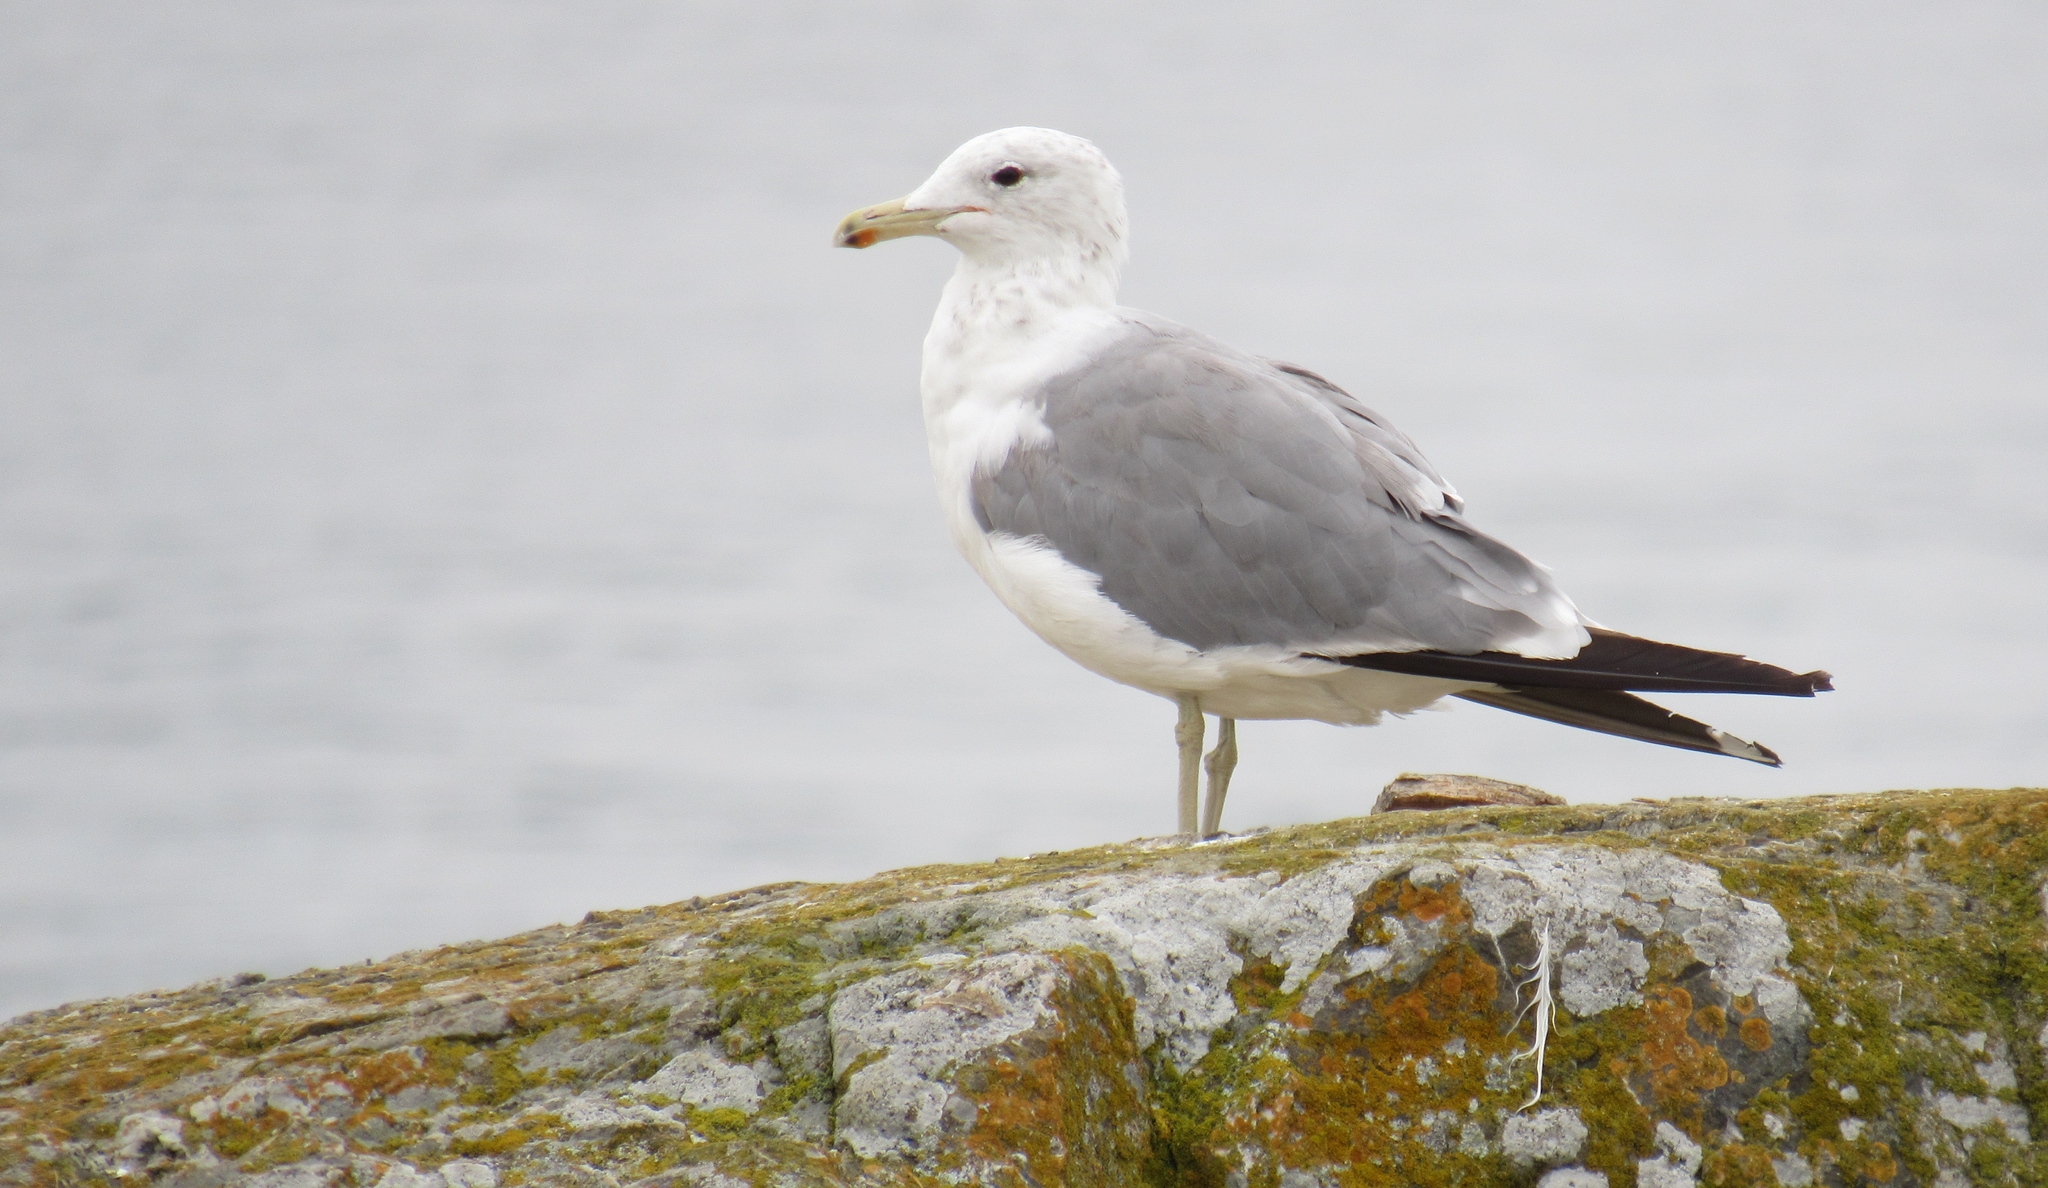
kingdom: Animalia
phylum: Chordata
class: Aves
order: Charadriiformes
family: Laridae
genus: Larus
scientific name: Larus californicus
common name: California gull
